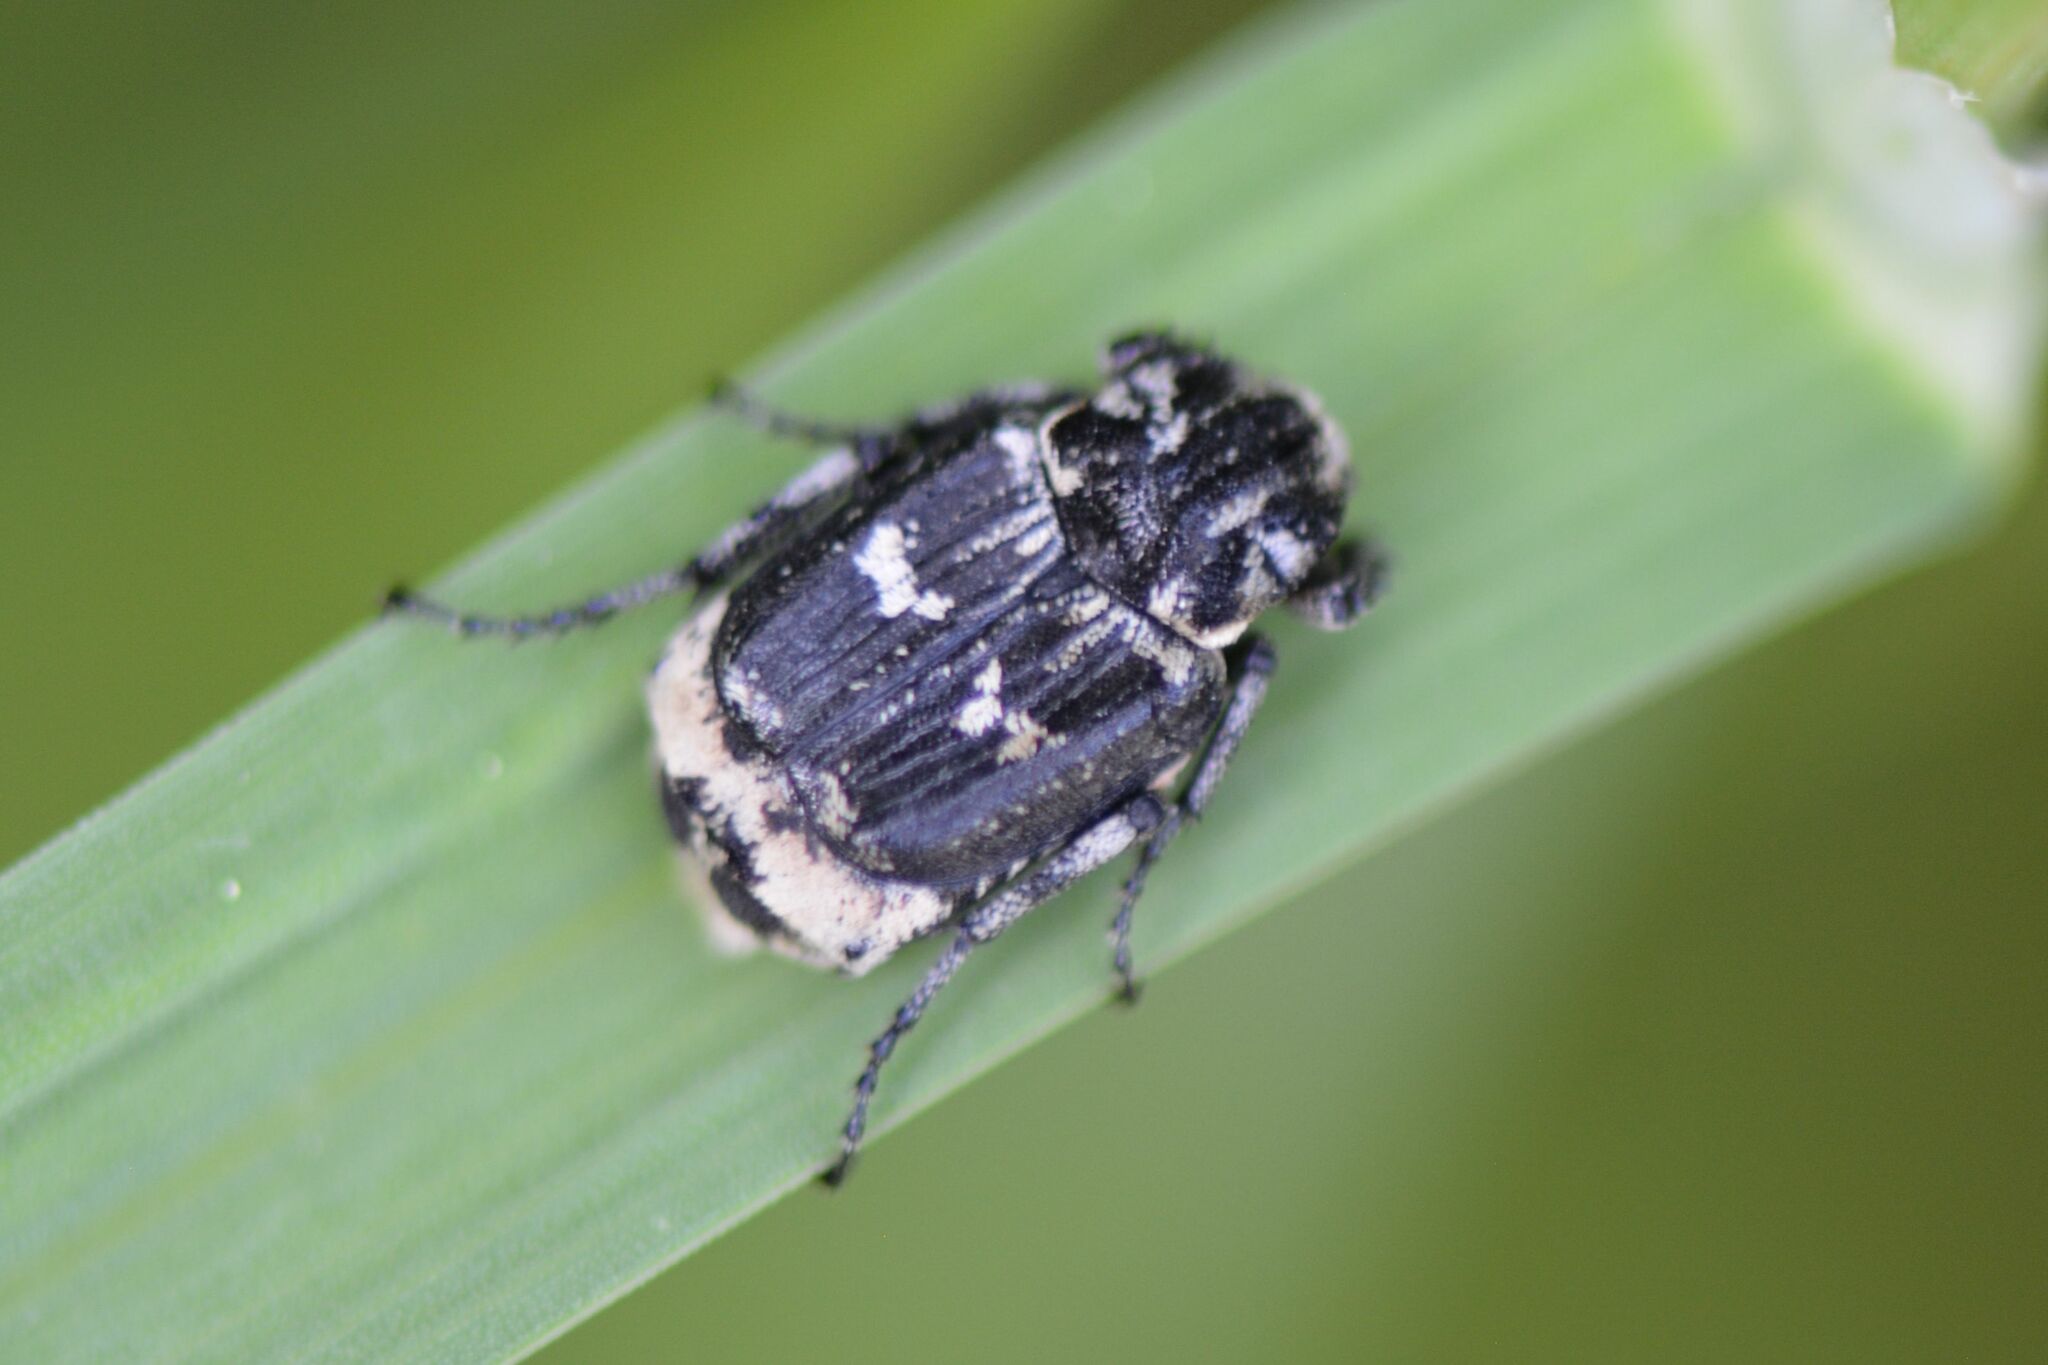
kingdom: Animalia
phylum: Arthropoda
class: Insecta
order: Coleoptera
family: Scarabaeidae
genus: Valgus
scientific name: Valgus hemipterus
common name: Bug flower chafer
